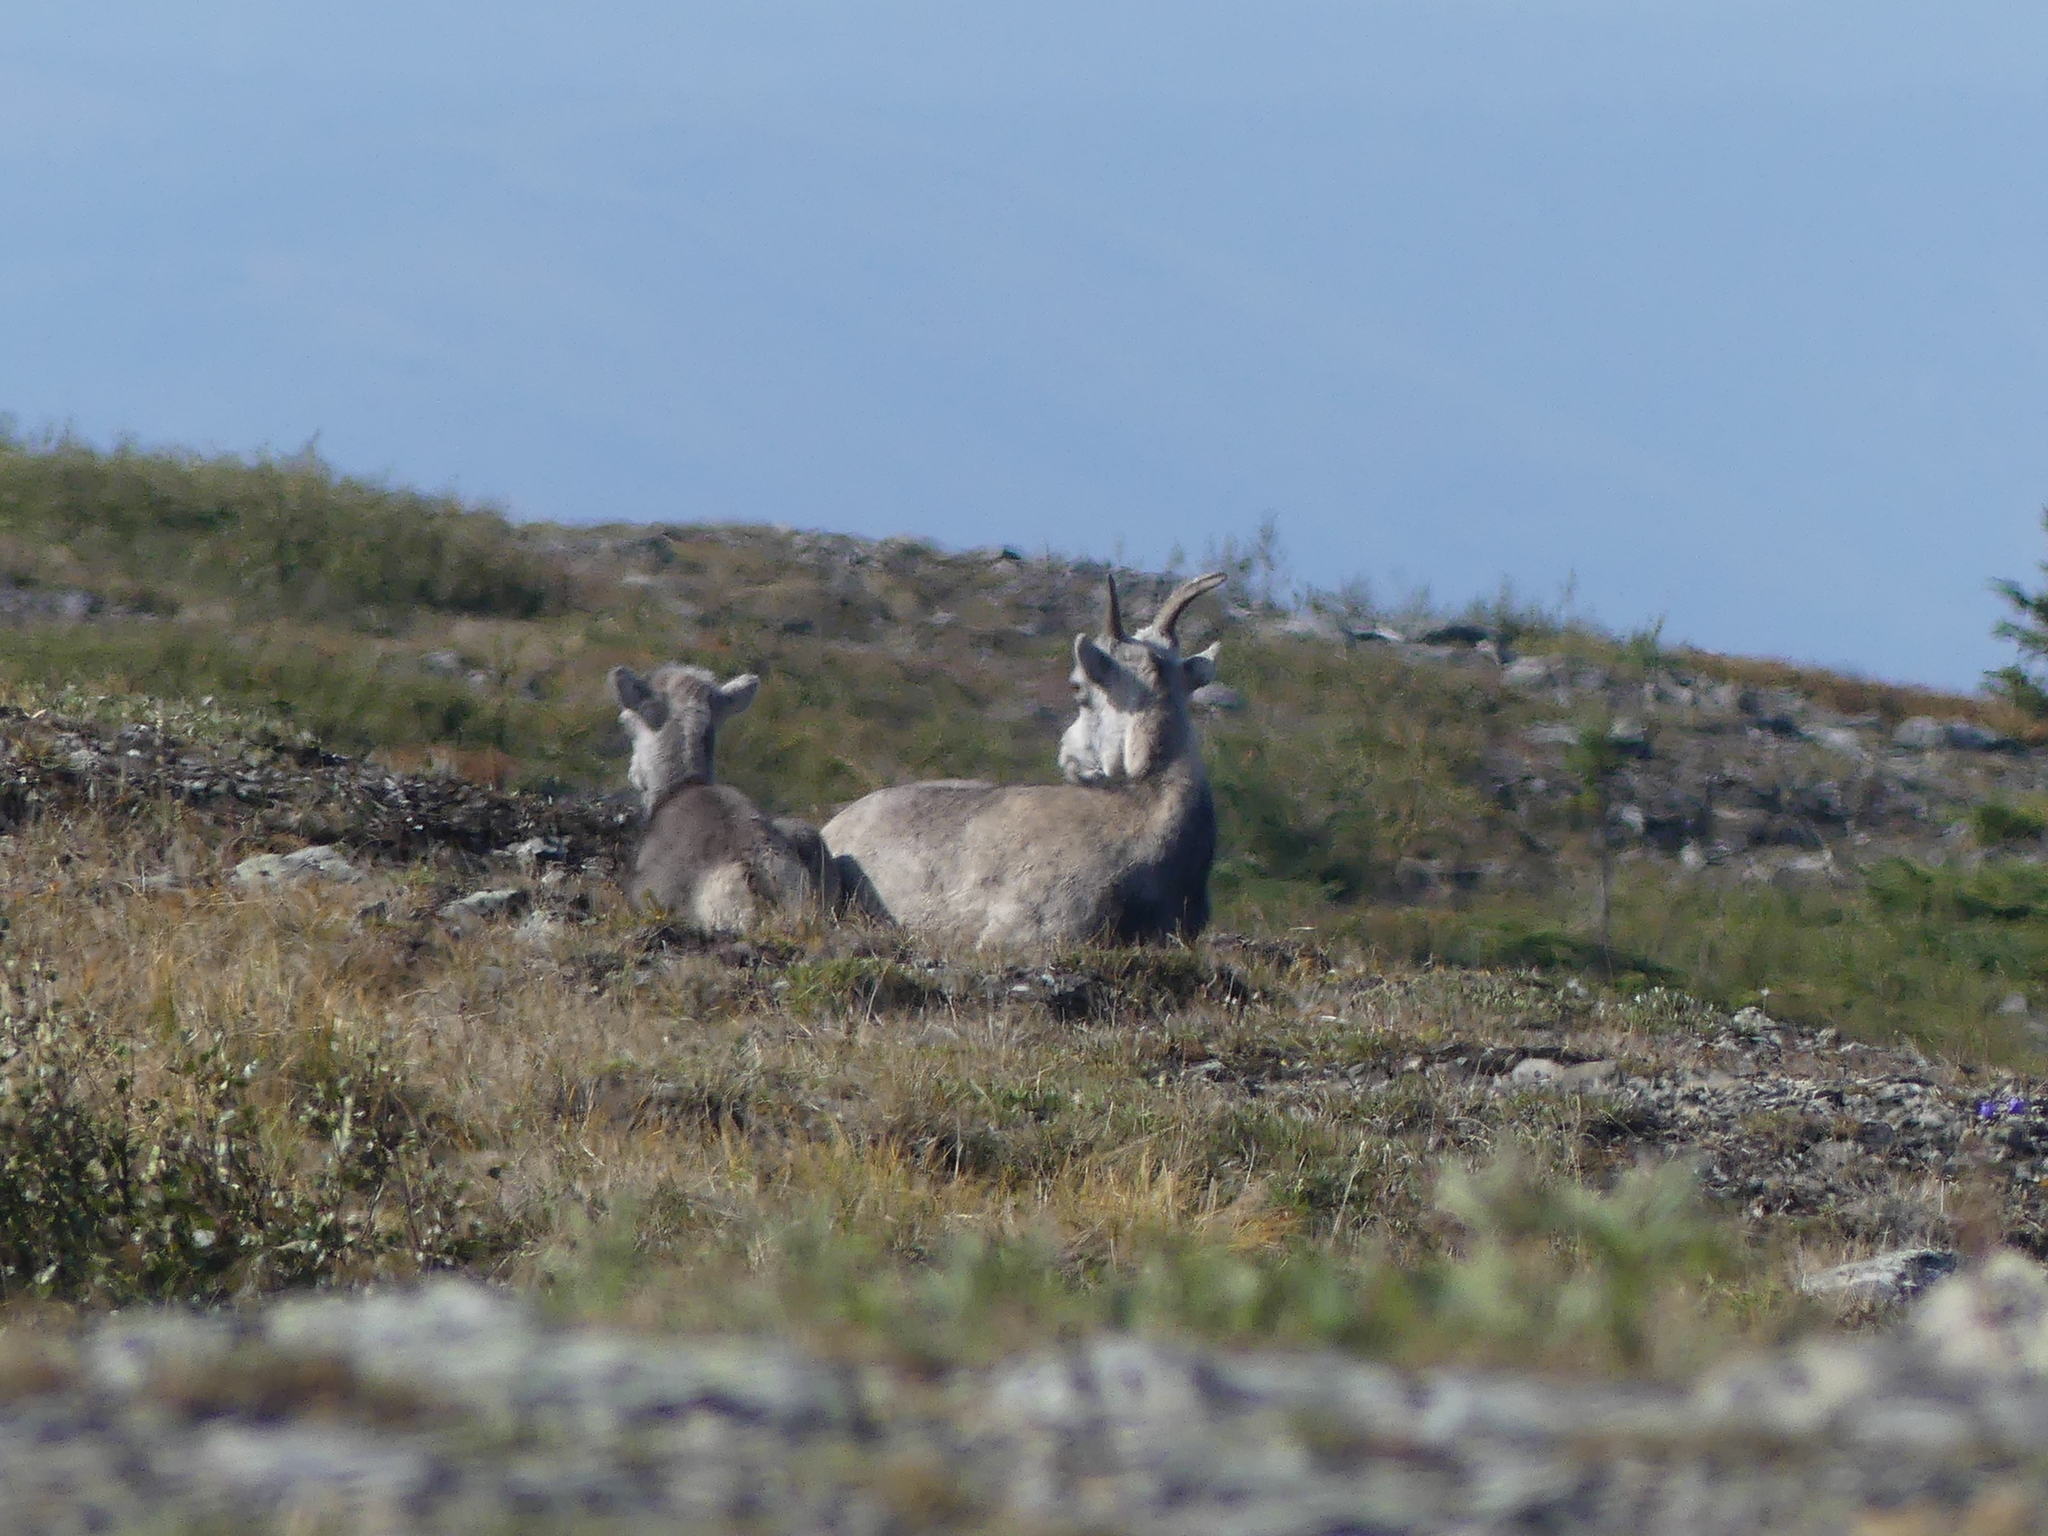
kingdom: Animalia
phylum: Chordata
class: Mammalia
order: Artiodactyla
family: Bovidae
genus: Ovis
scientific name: Ovis dalli
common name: Dall's sheep
